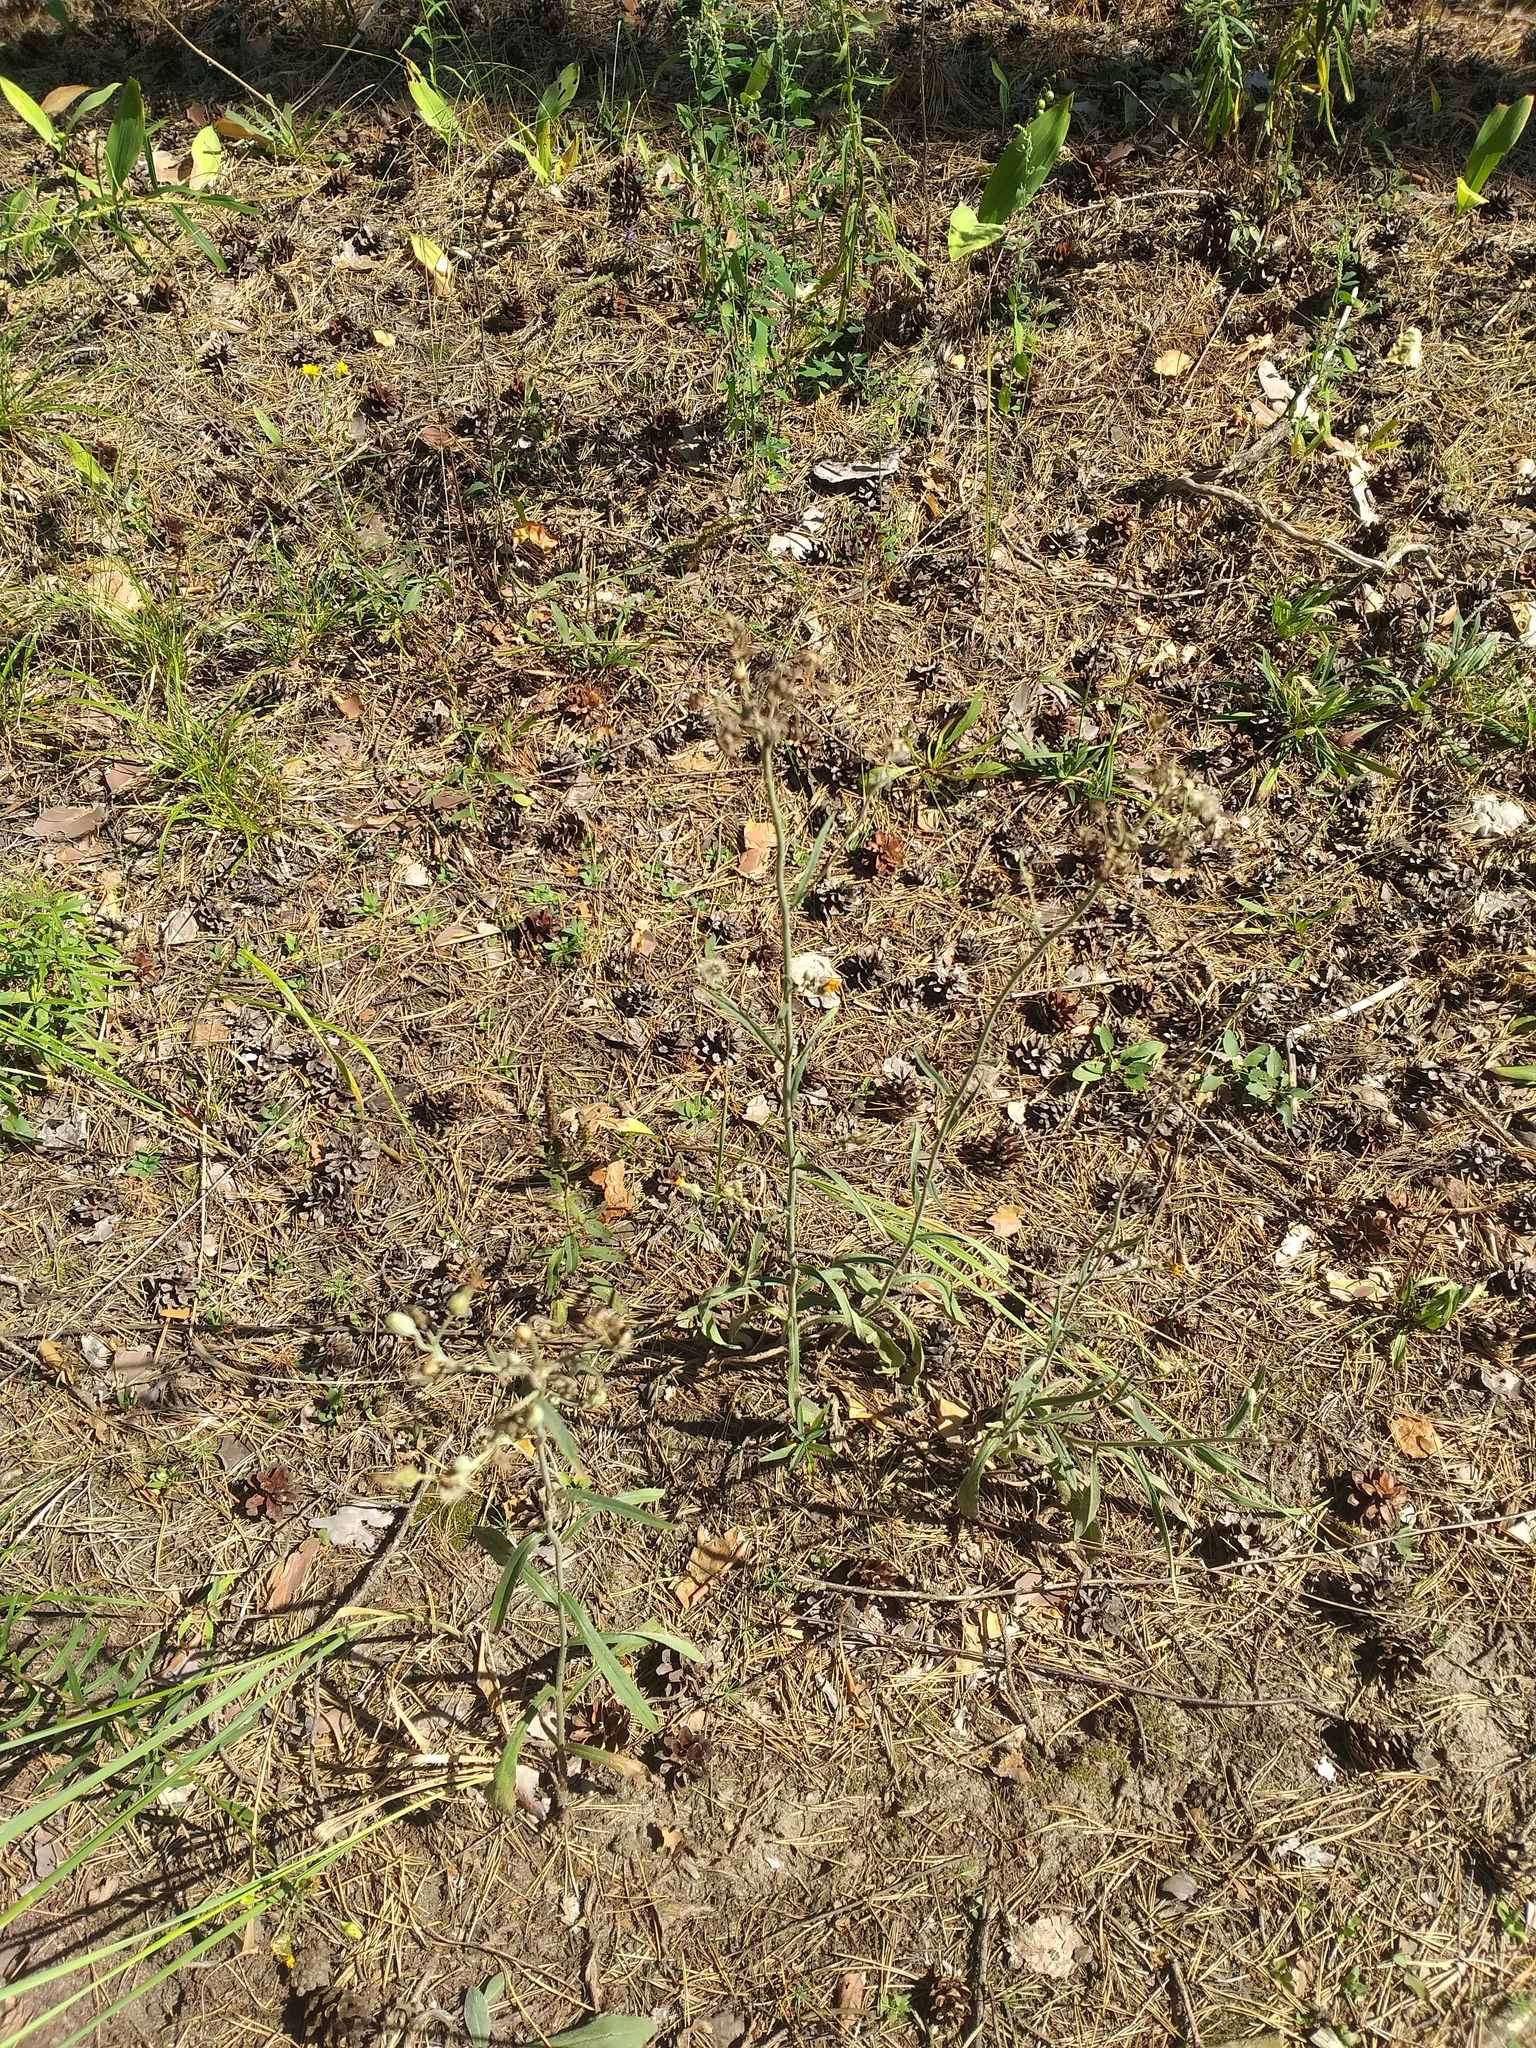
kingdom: Plantae
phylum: Tracheophyta
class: Magnoliopsida
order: Asterales
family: Asteraceae
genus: Pilosella
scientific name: Pilosella echioides
